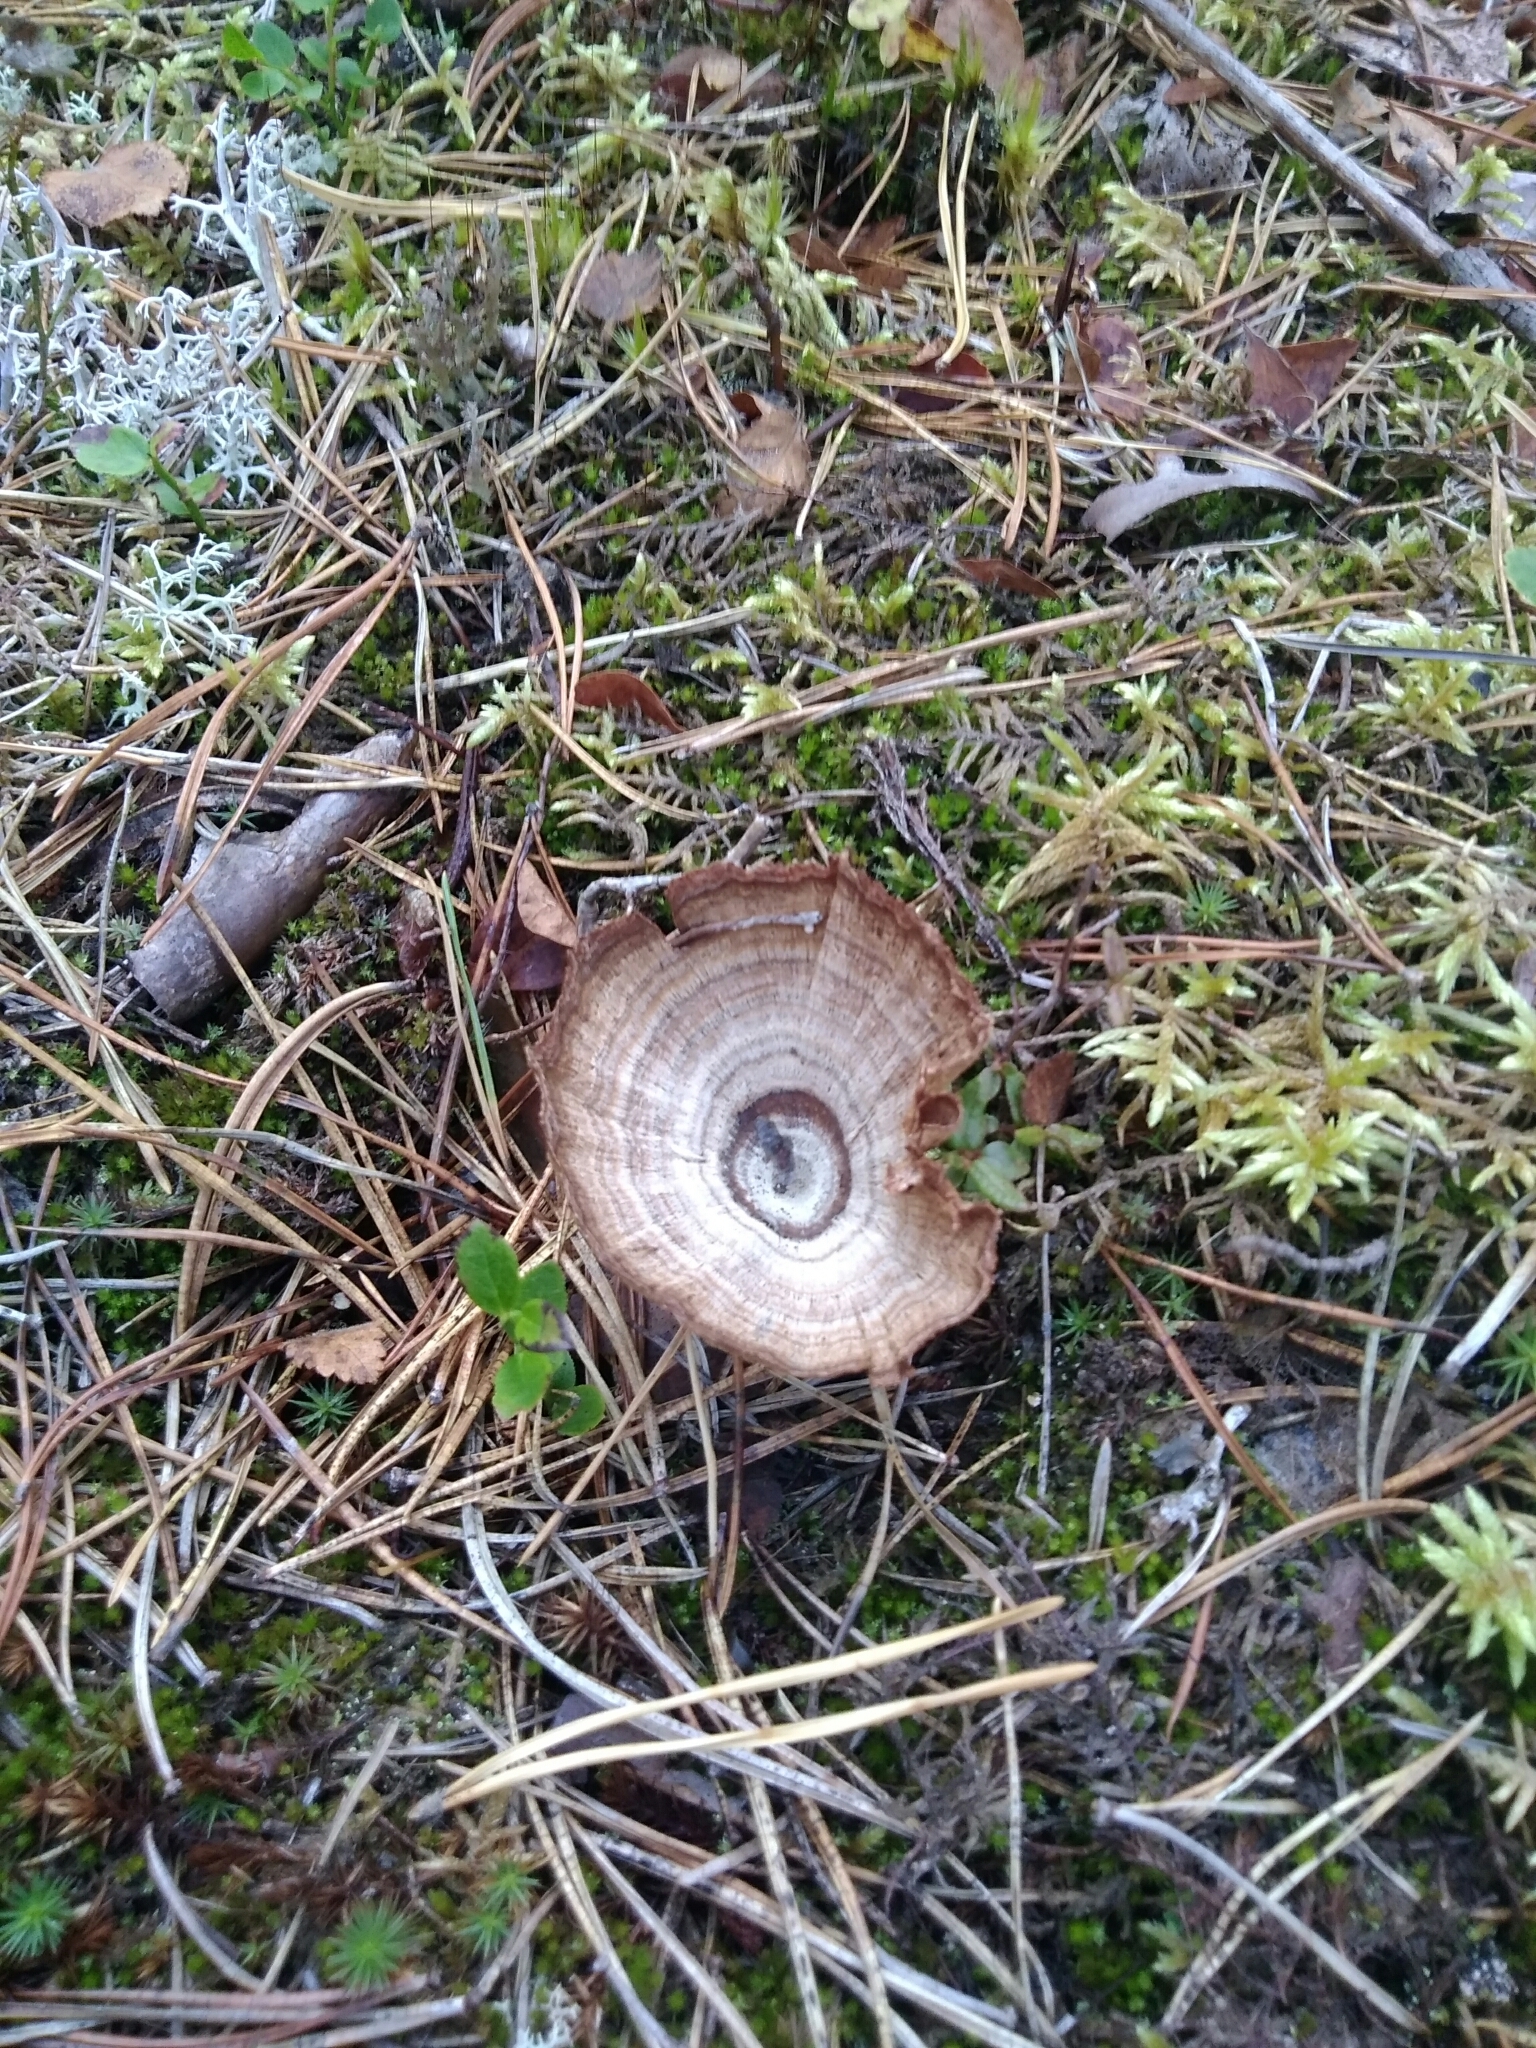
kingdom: Fungi
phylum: Basidiomycota
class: Agaricomycetes
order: Hymenochaetales
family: Hymenochaetaceae
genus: Coltricia
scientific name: Coltricia perennis
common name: Tiger's eye
